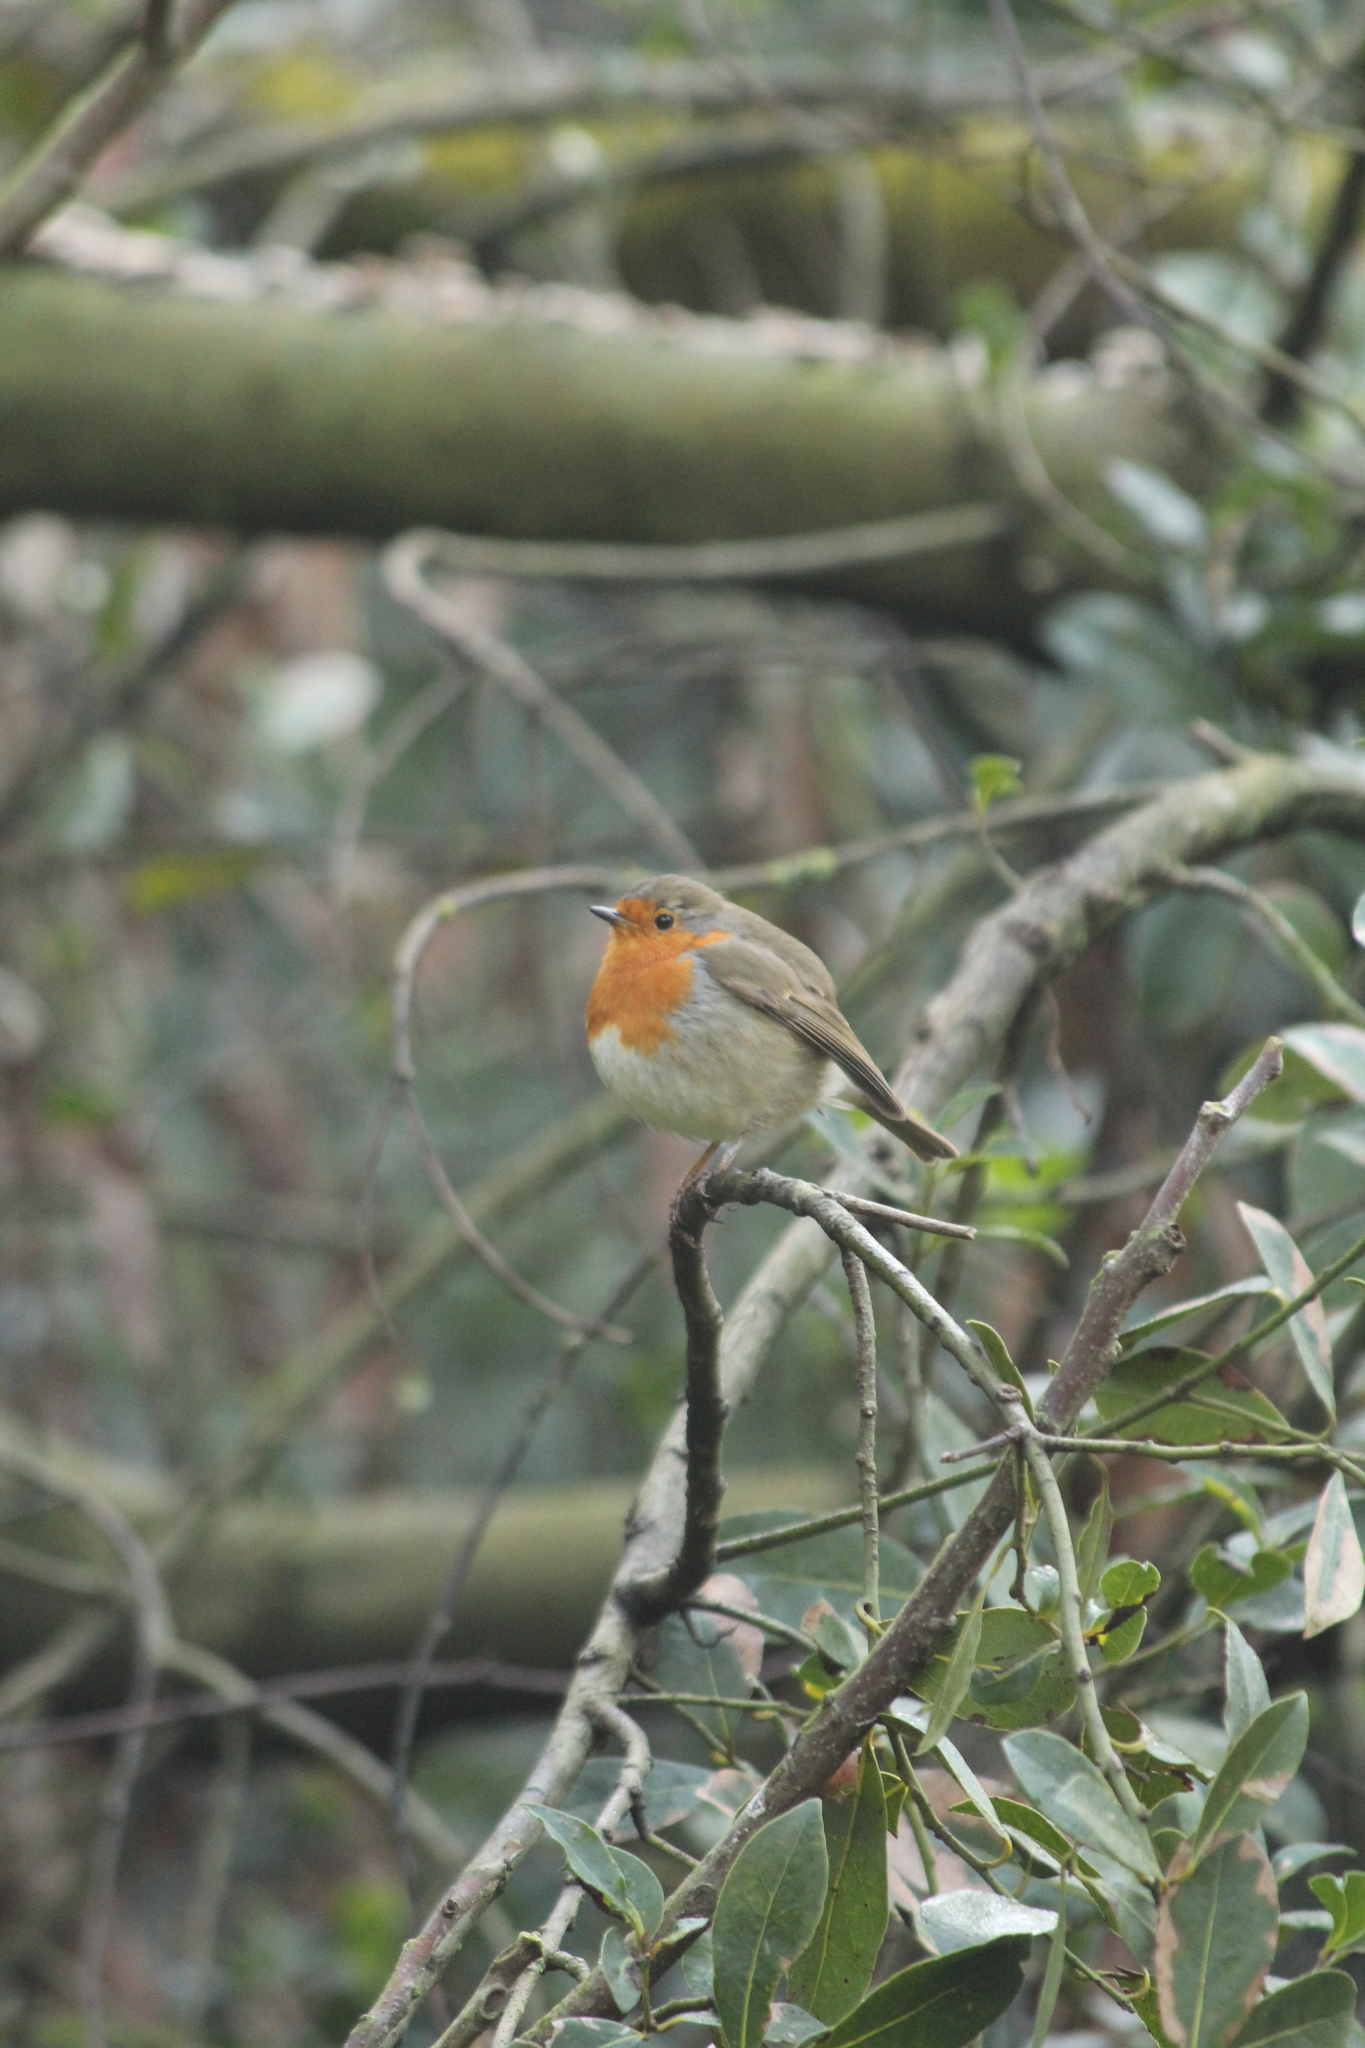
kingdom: Animalia
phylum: Chordata
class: Aves
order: Passeriformes
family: Muscicapidae
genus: Erithacus
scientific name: Erithacus rubecula
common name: European robin
